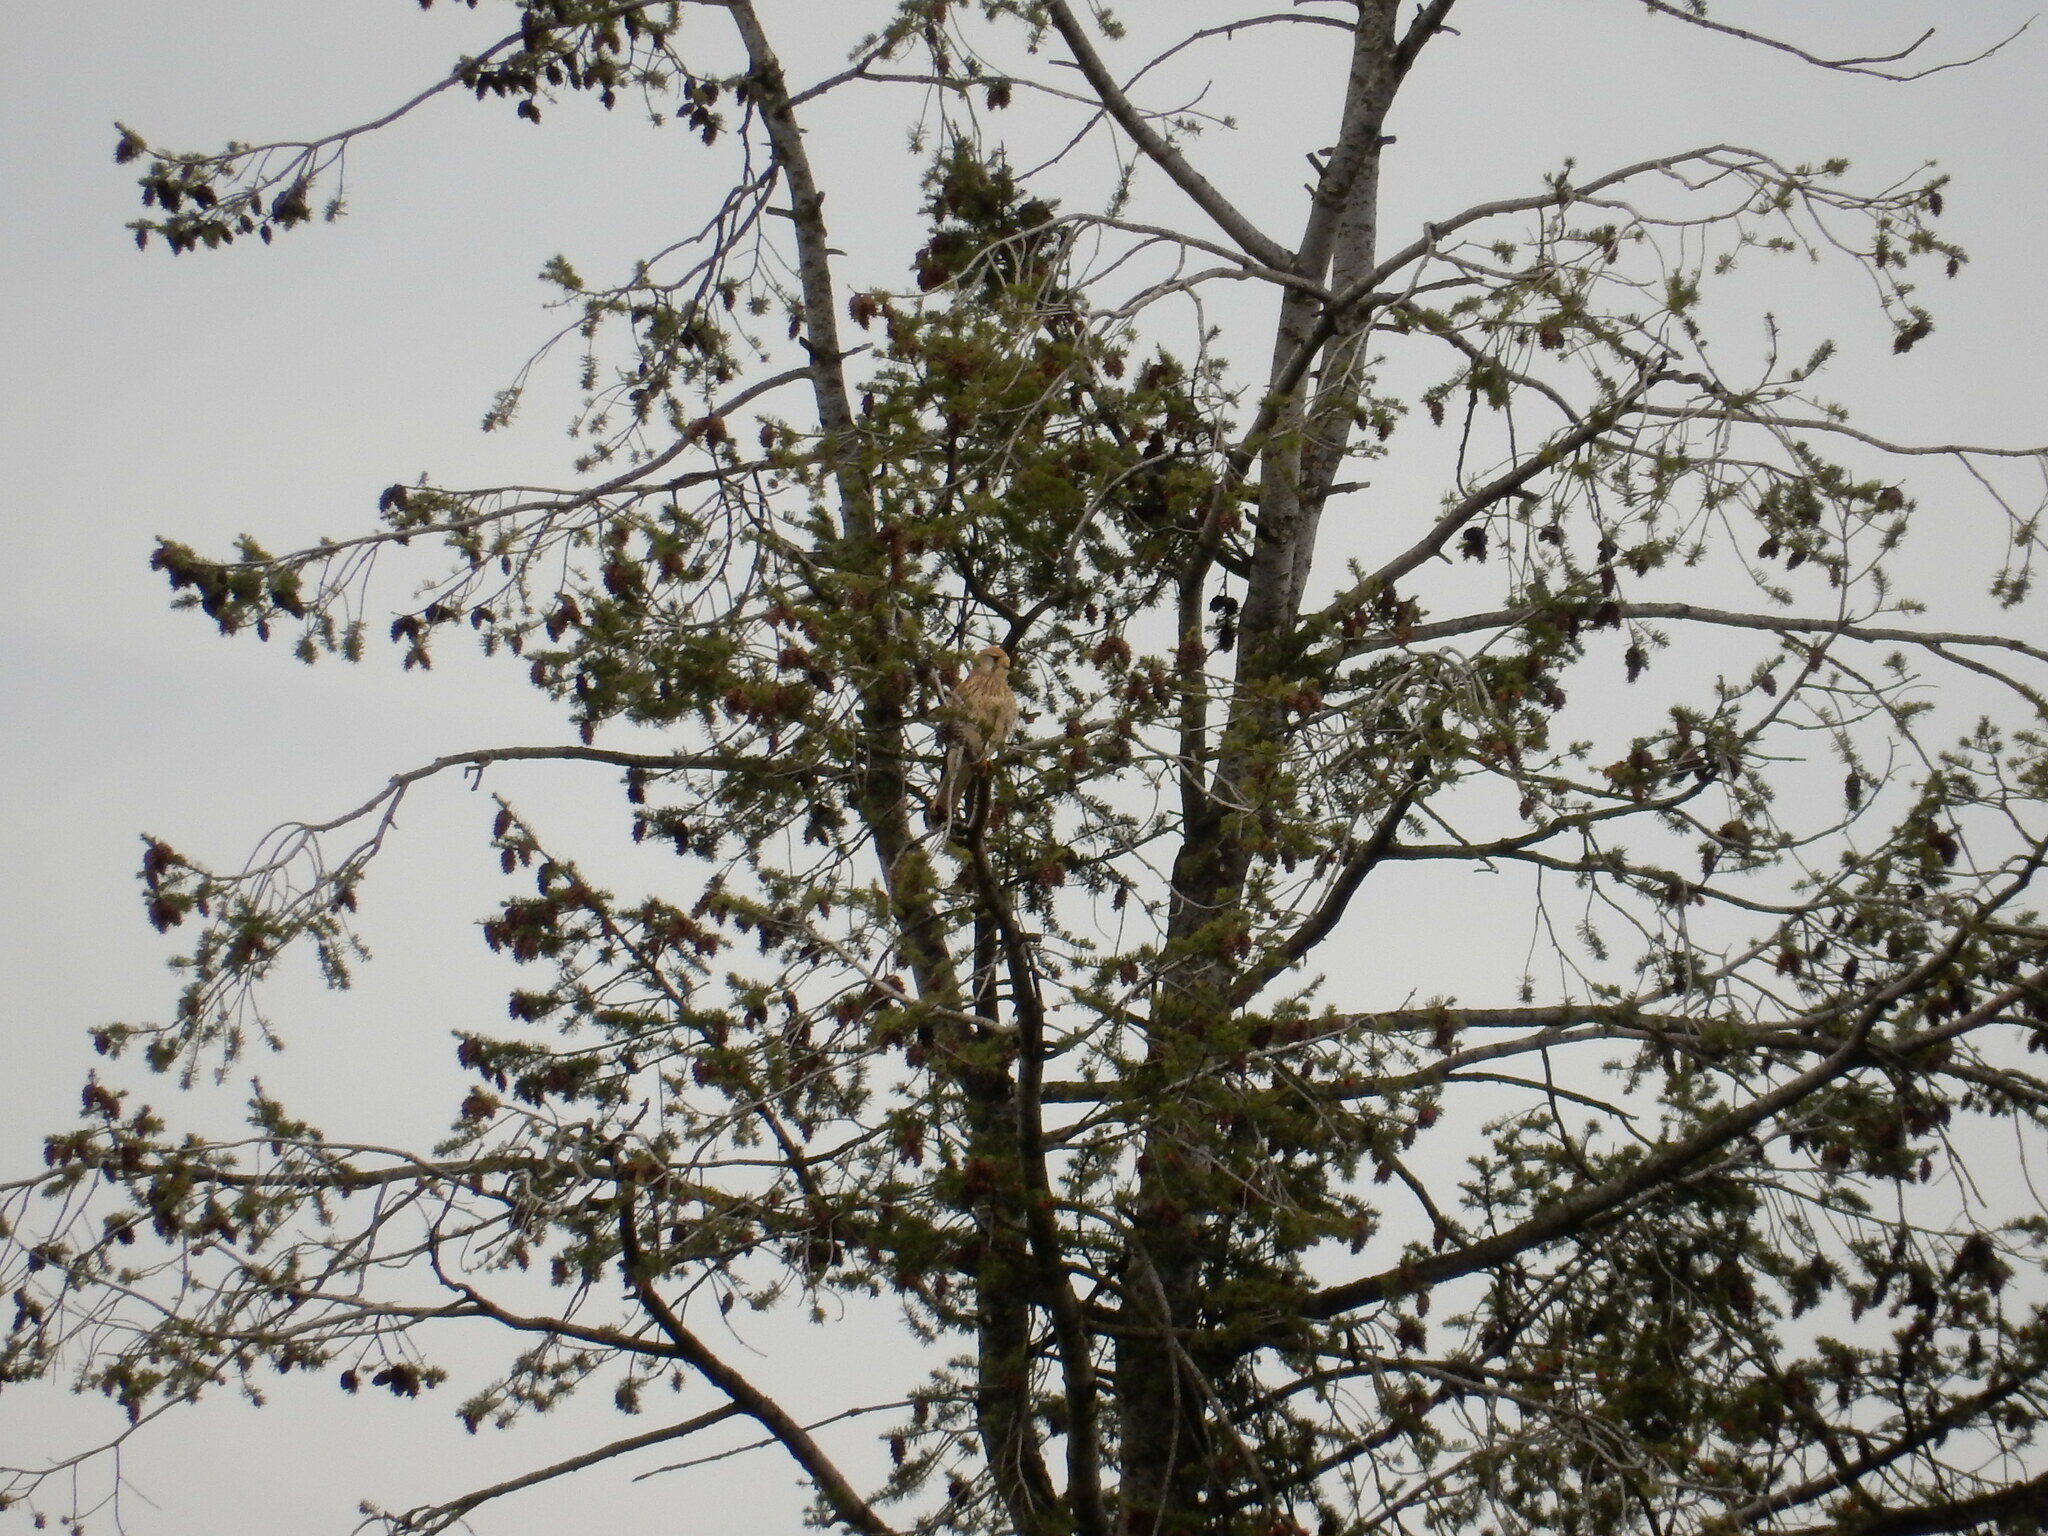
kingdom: Animalia
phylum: Chordata
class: Aves
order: Falconiformes
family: Falconidae
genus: Falco
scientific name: Falco tinnunculus
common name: Common kestrel
